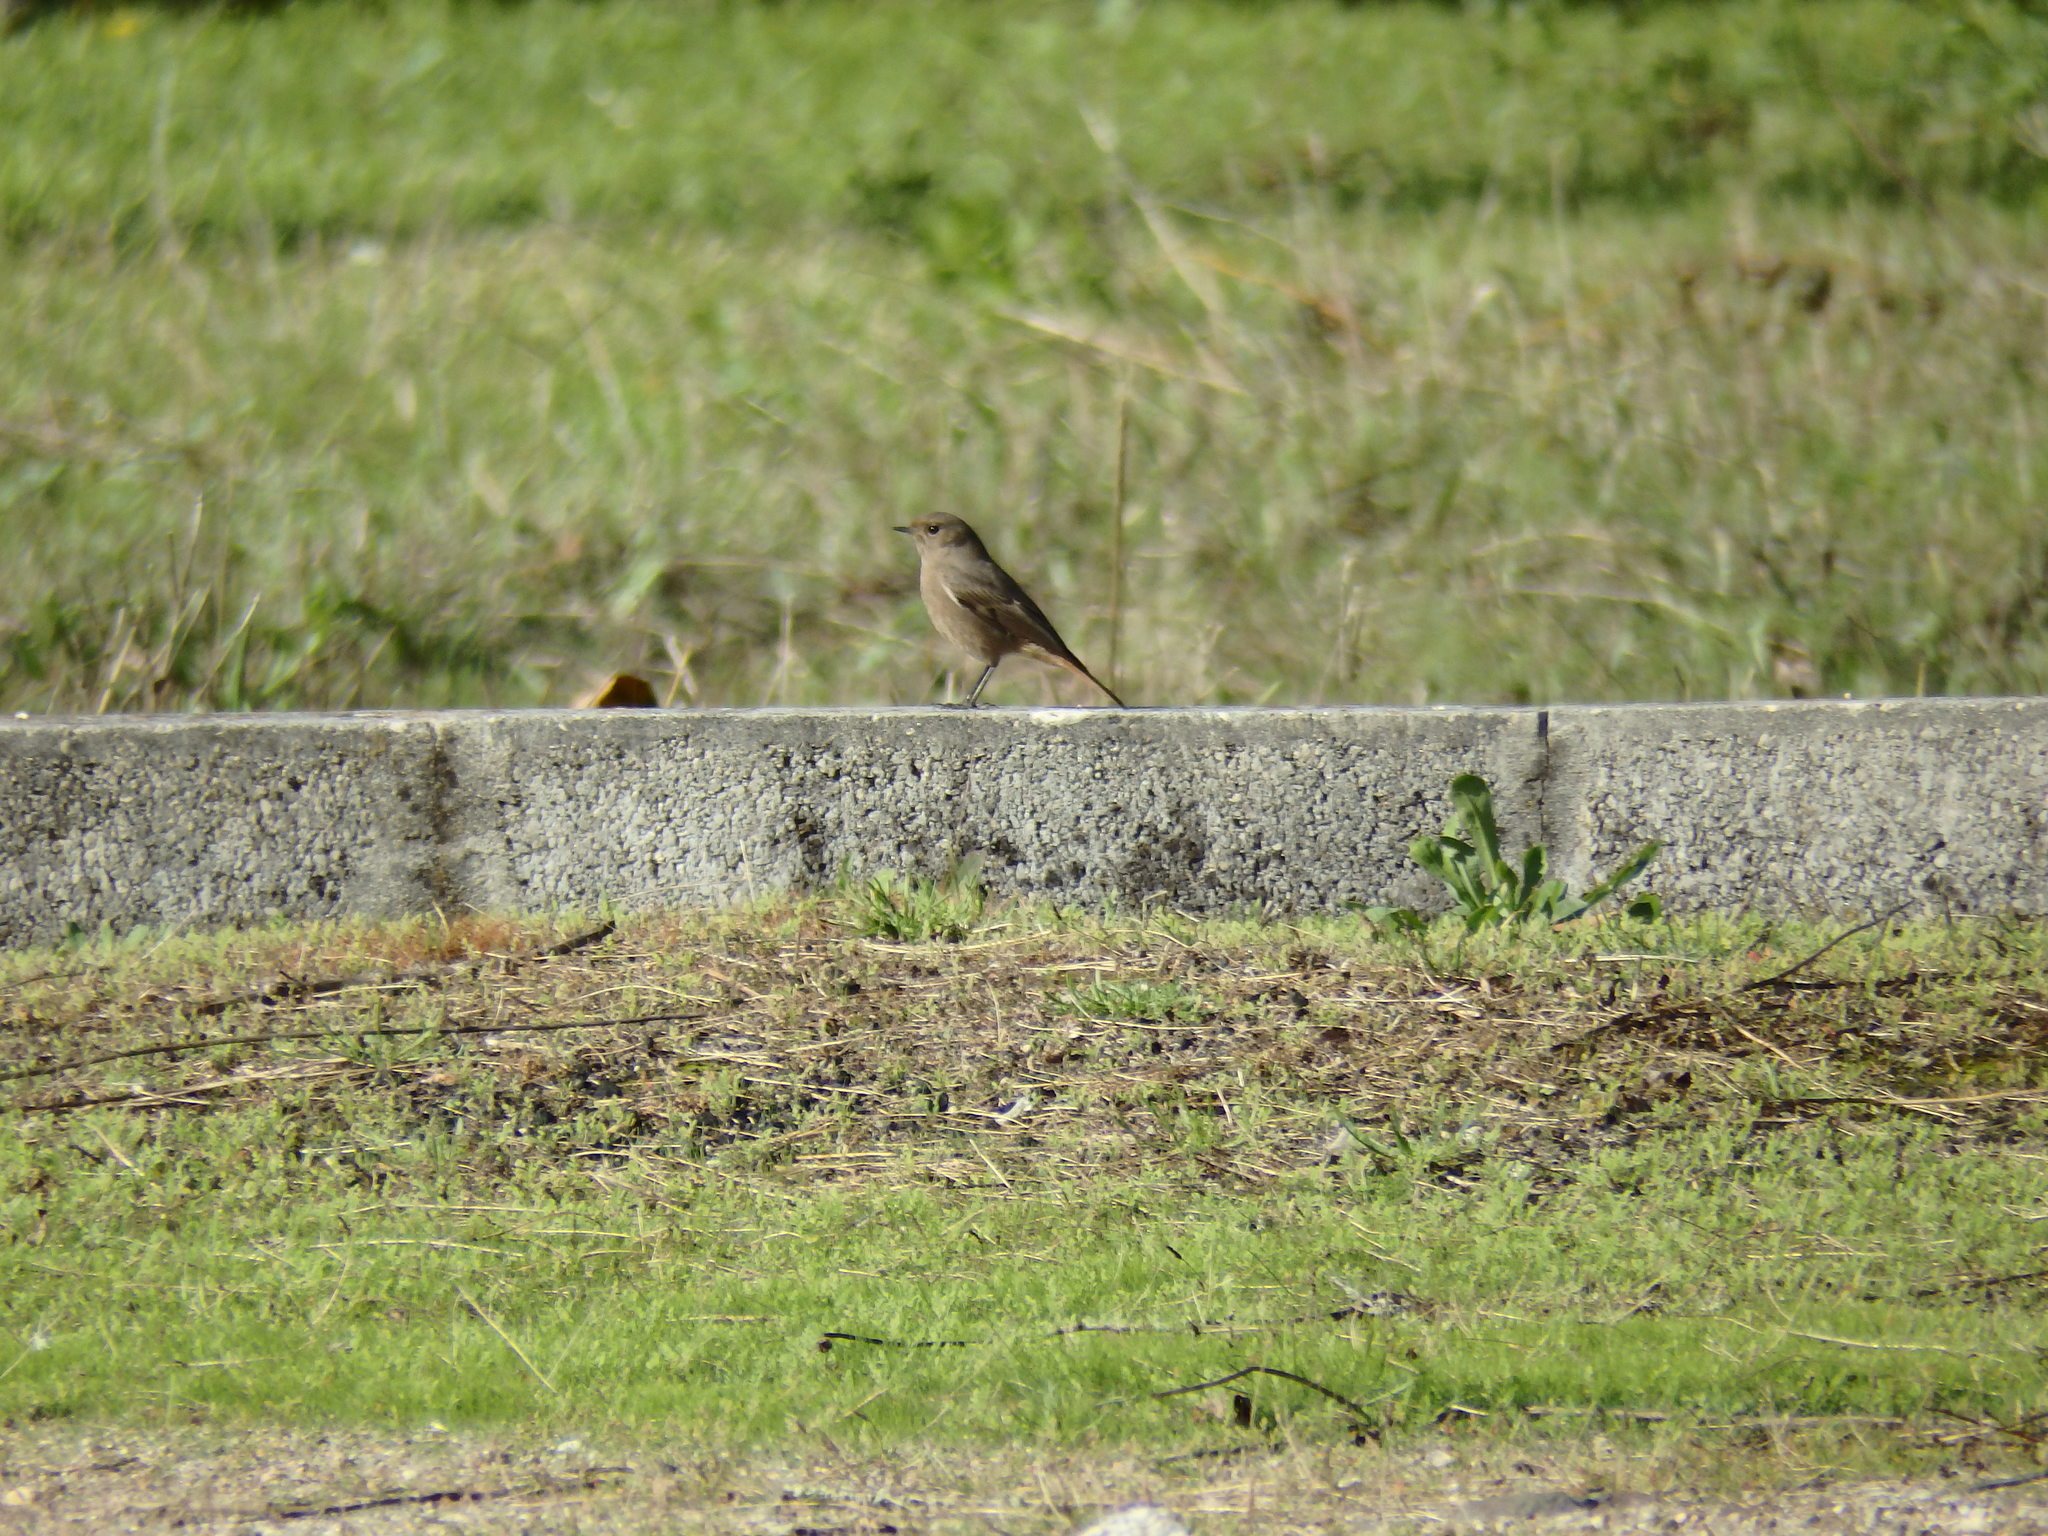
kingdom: Animalia
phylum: Chordata
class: Aves
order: Passeriformes
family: Muscicapidae
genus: Phoenicurus
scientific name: Phoenicurus ochruros
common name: Black redstart
